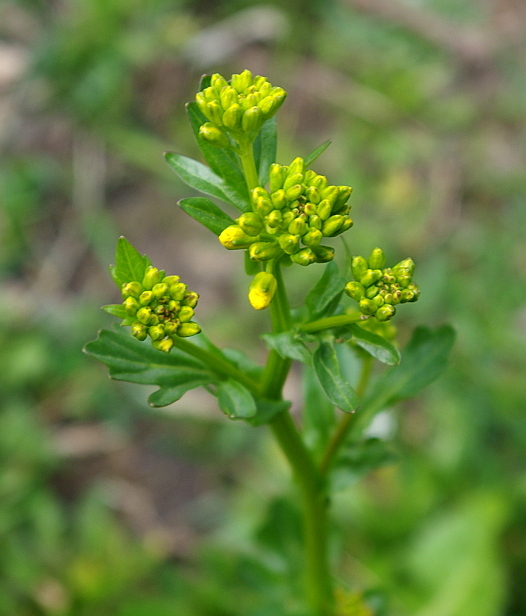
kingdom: Plantae
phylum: Tracheophyta
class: Magnoliopsida
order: Brassicales
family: Brassicaceae
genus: Barbarea
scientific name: Barbarea vulgaris
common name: Cressy-greens
